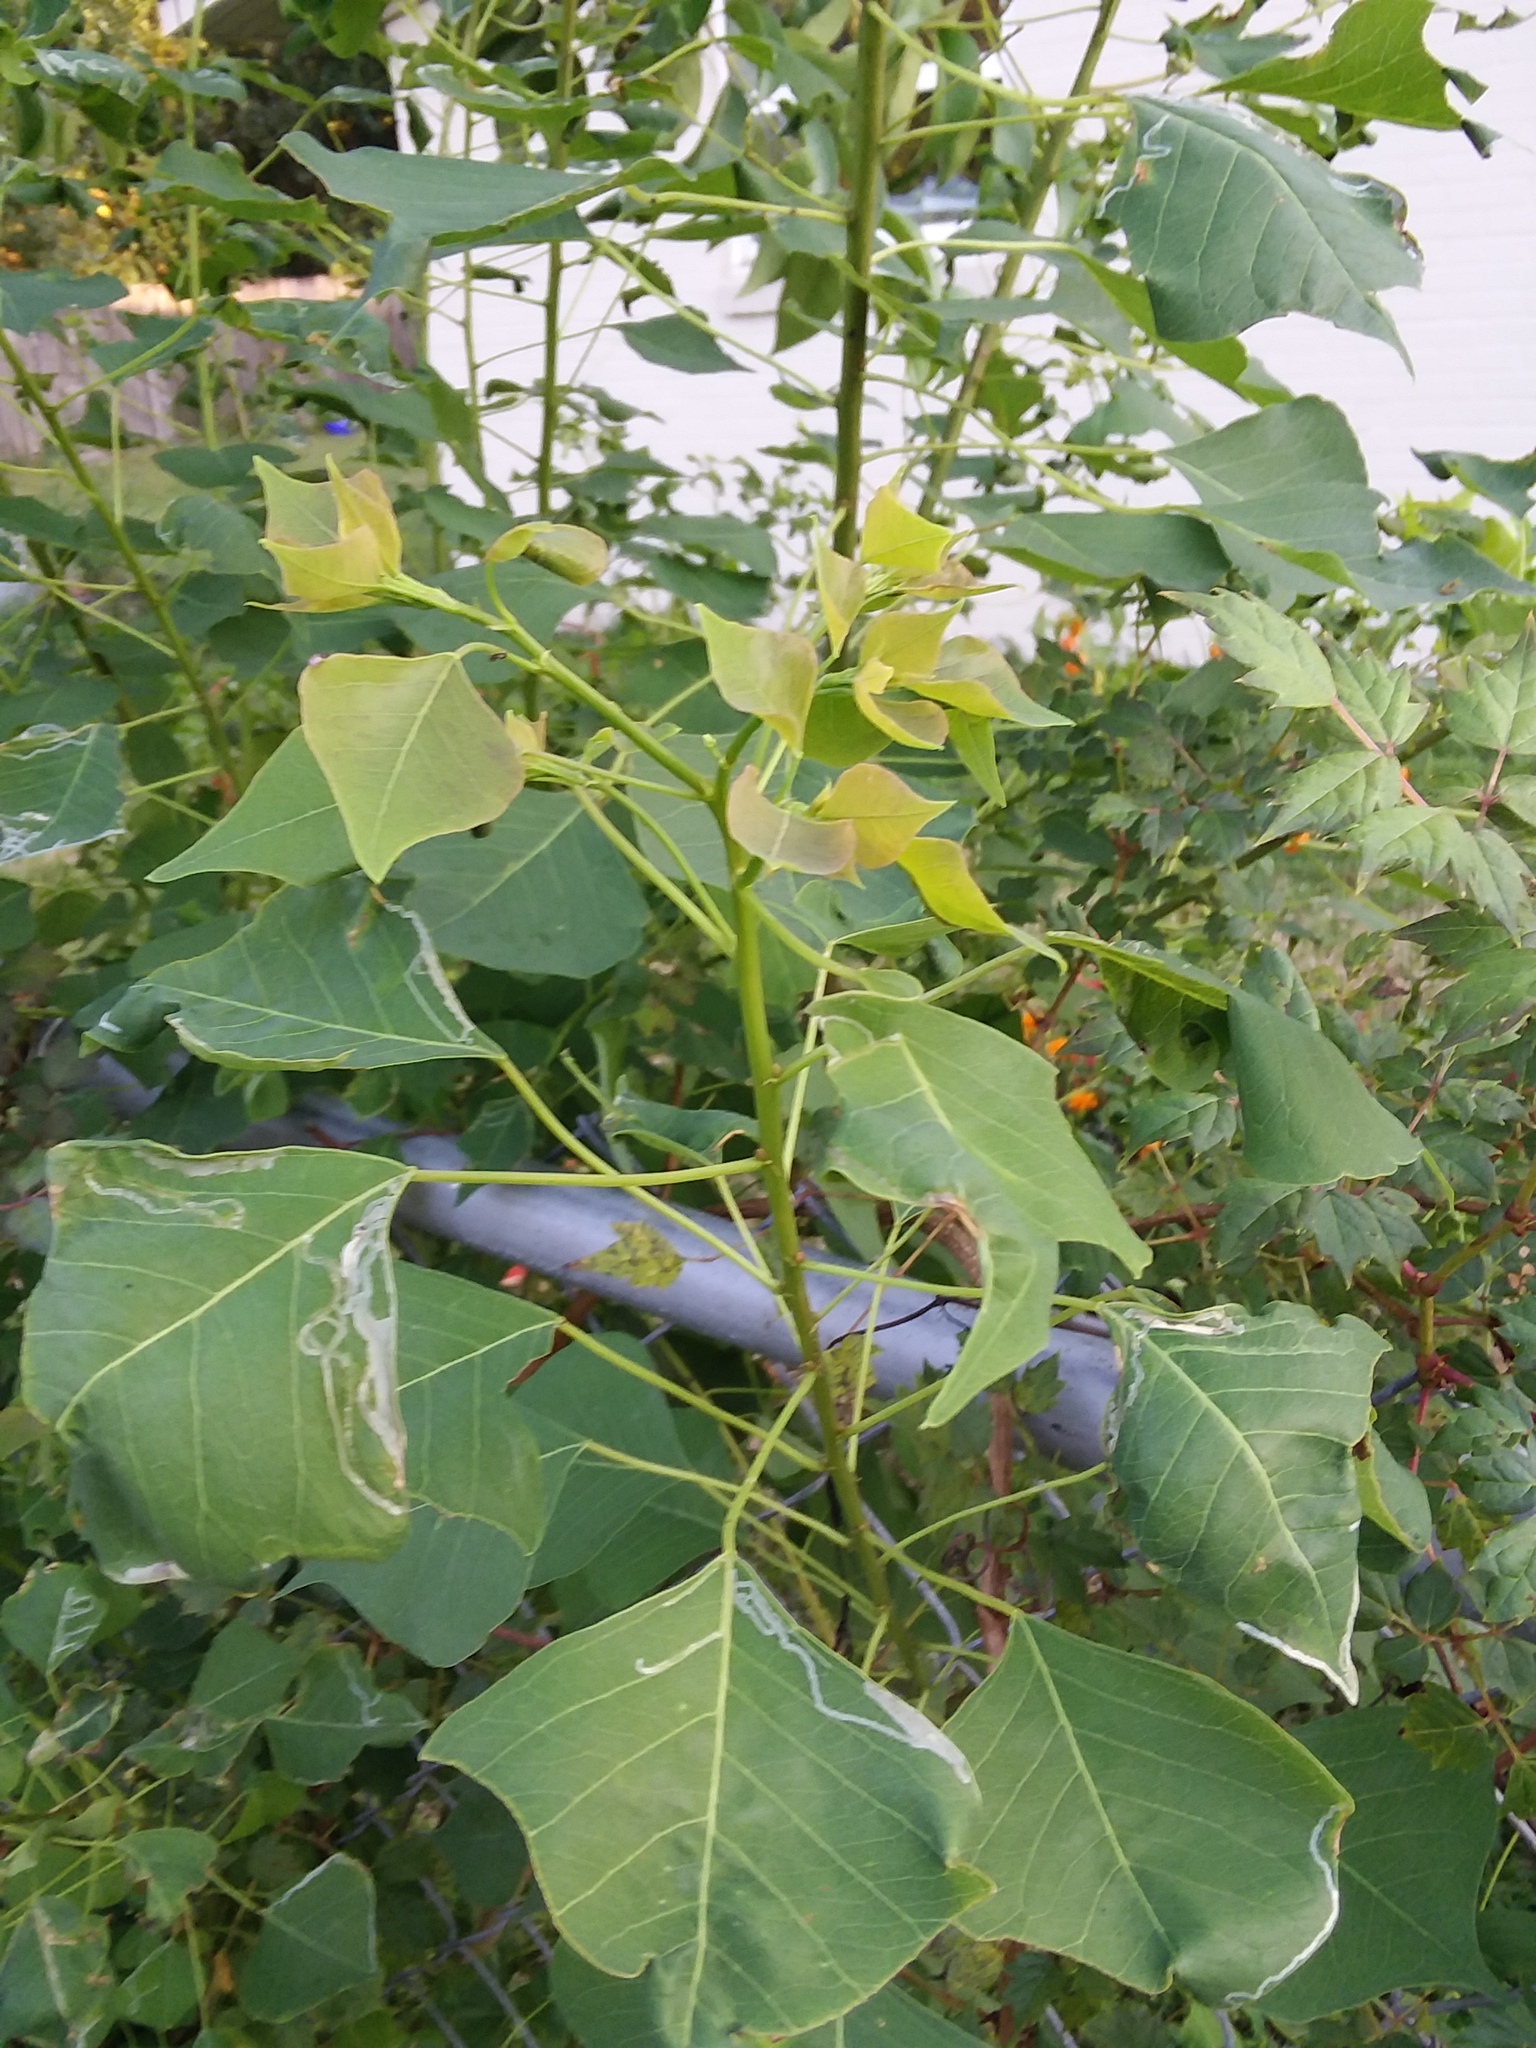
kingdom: Plantae
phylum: Tracheophyta
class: Magnoliopsida
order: Malpighiales
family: Euphorbiaceae
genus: Triadica
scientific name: Triadica sebifera
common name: Chinese tallow
